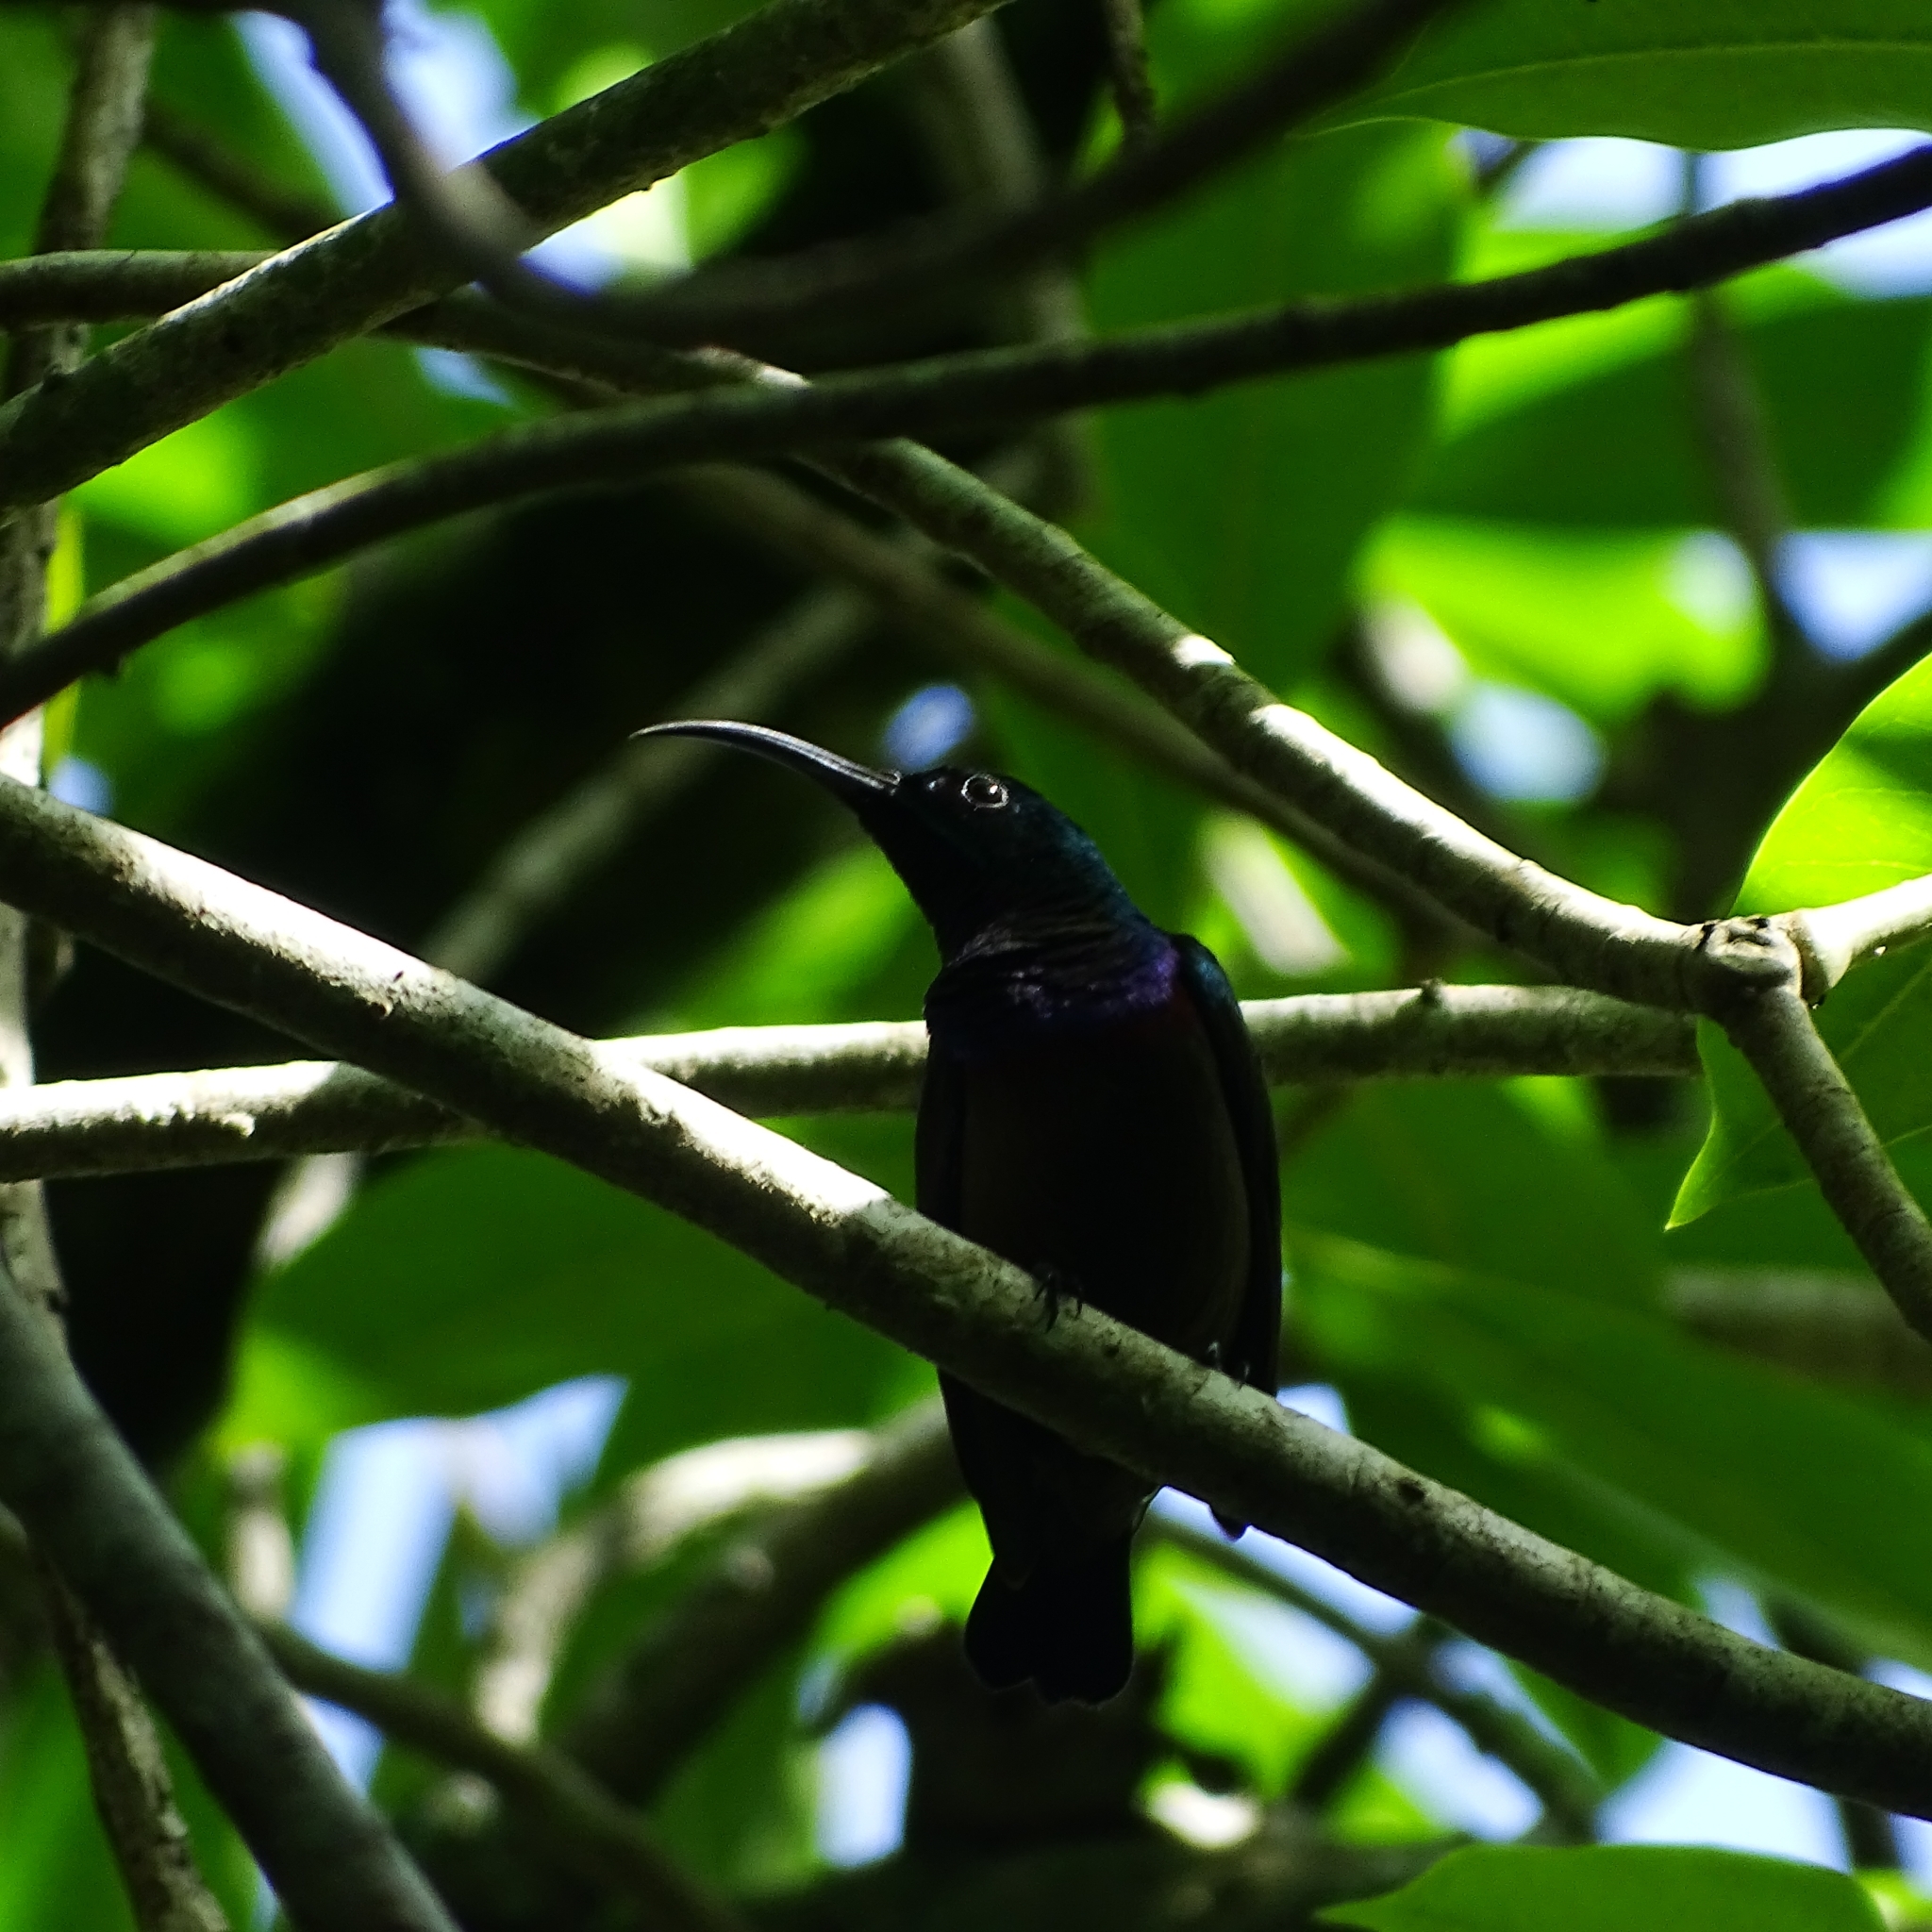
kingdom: Animalia
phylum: Chordata
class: Aves
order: Passeriformes
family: Nectariniidae
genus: Cinnyris
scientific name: Cinnyris lotenius
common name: Loten's sunbird
